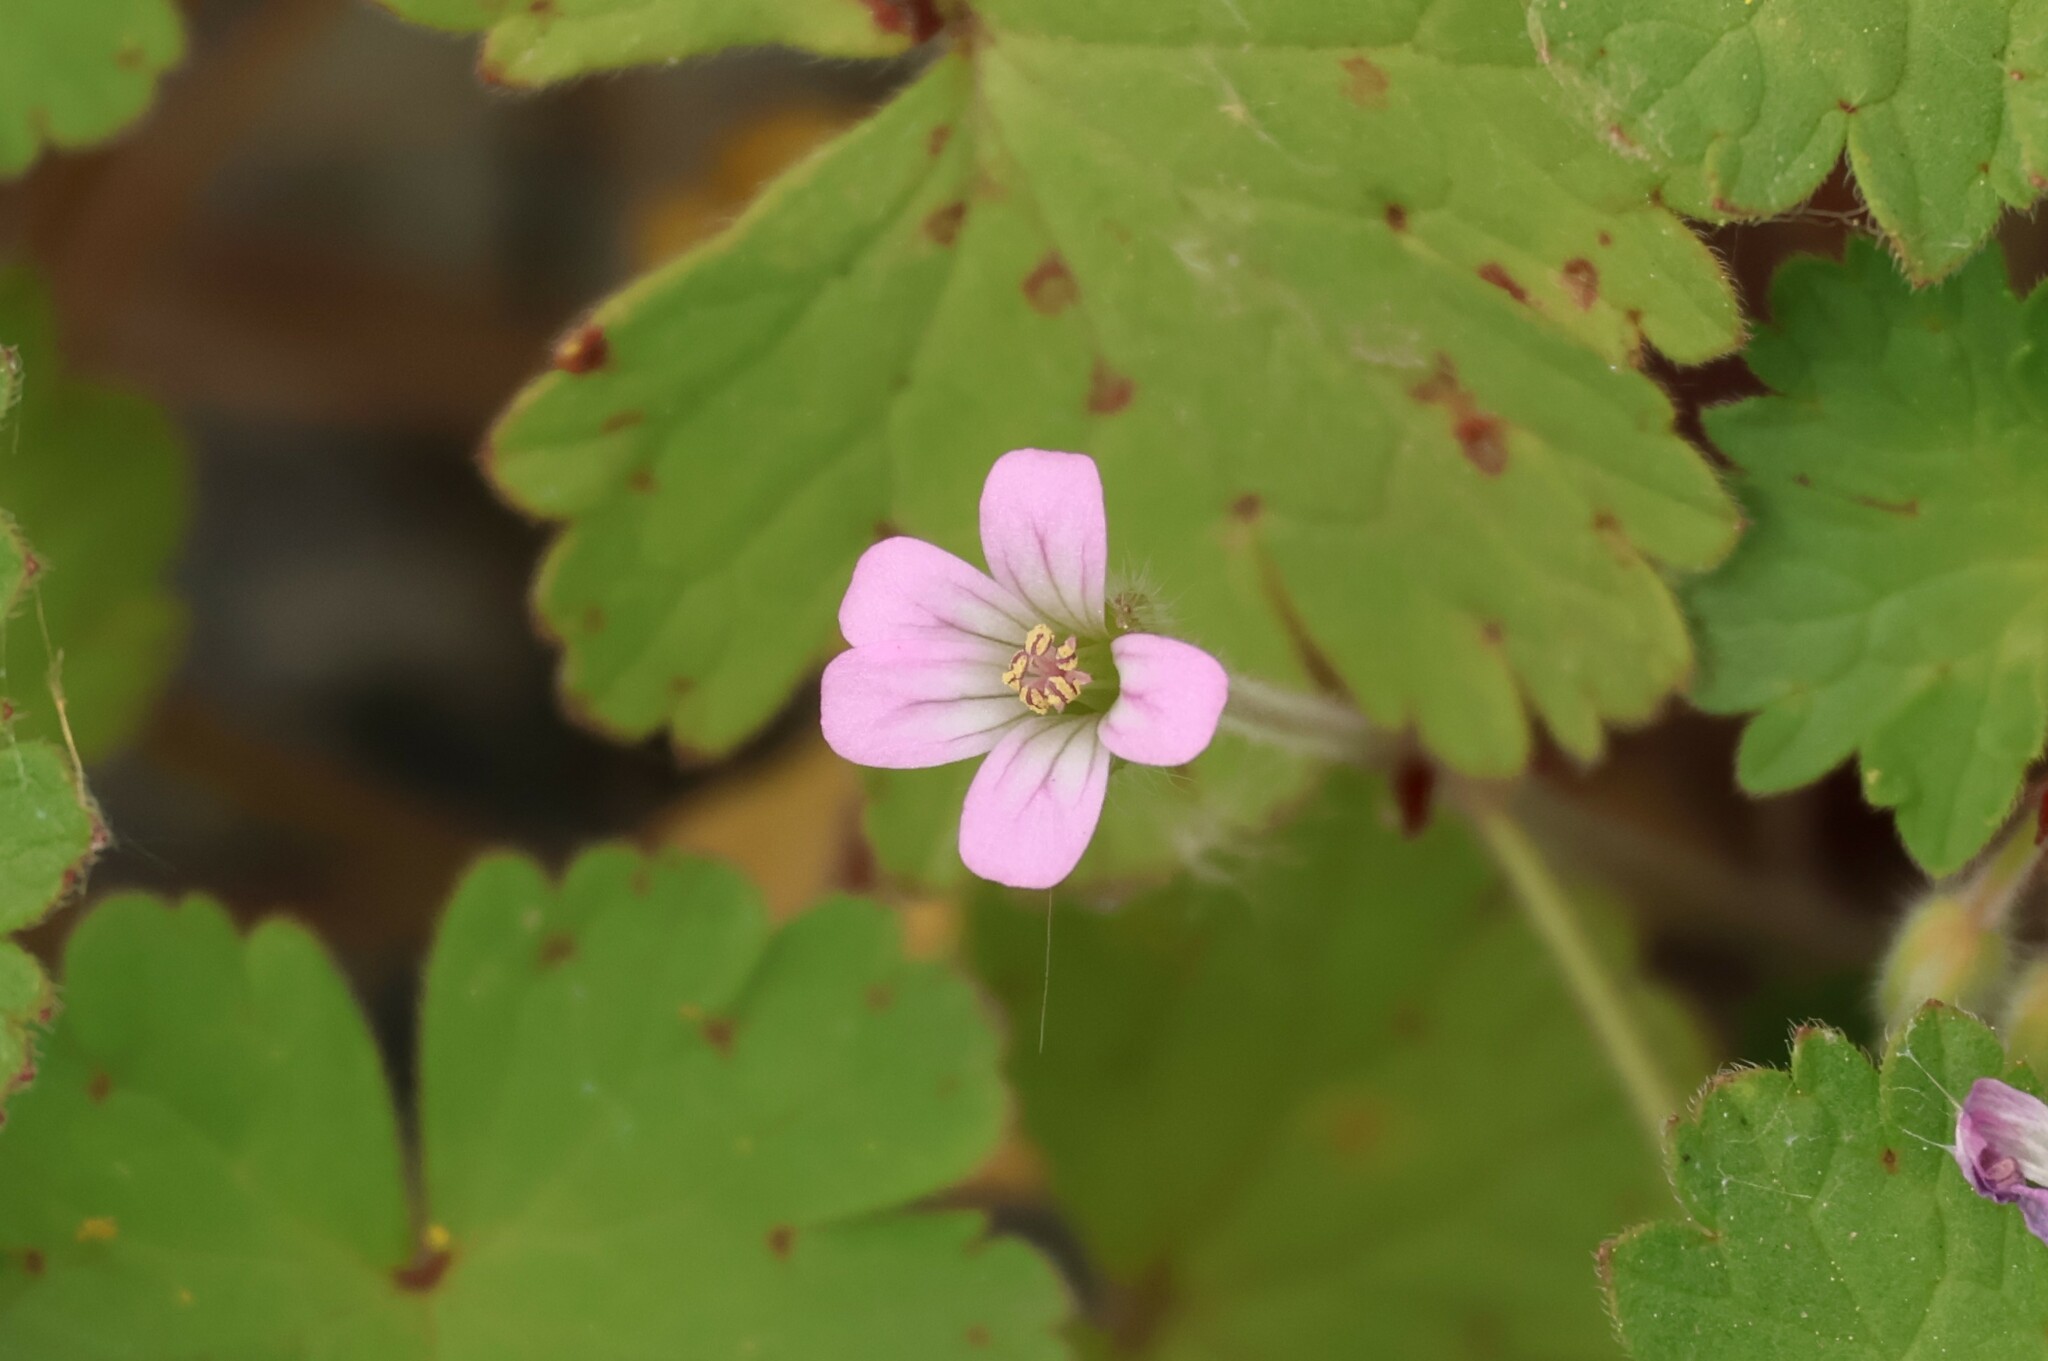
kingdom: Plantae
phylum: Tracheophyta
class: Magnoliopsida
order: Geraniales
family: Geraniaceae
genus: Geranium
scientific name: Geranium rotundifolium
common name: Round-leaved crane's-bill
